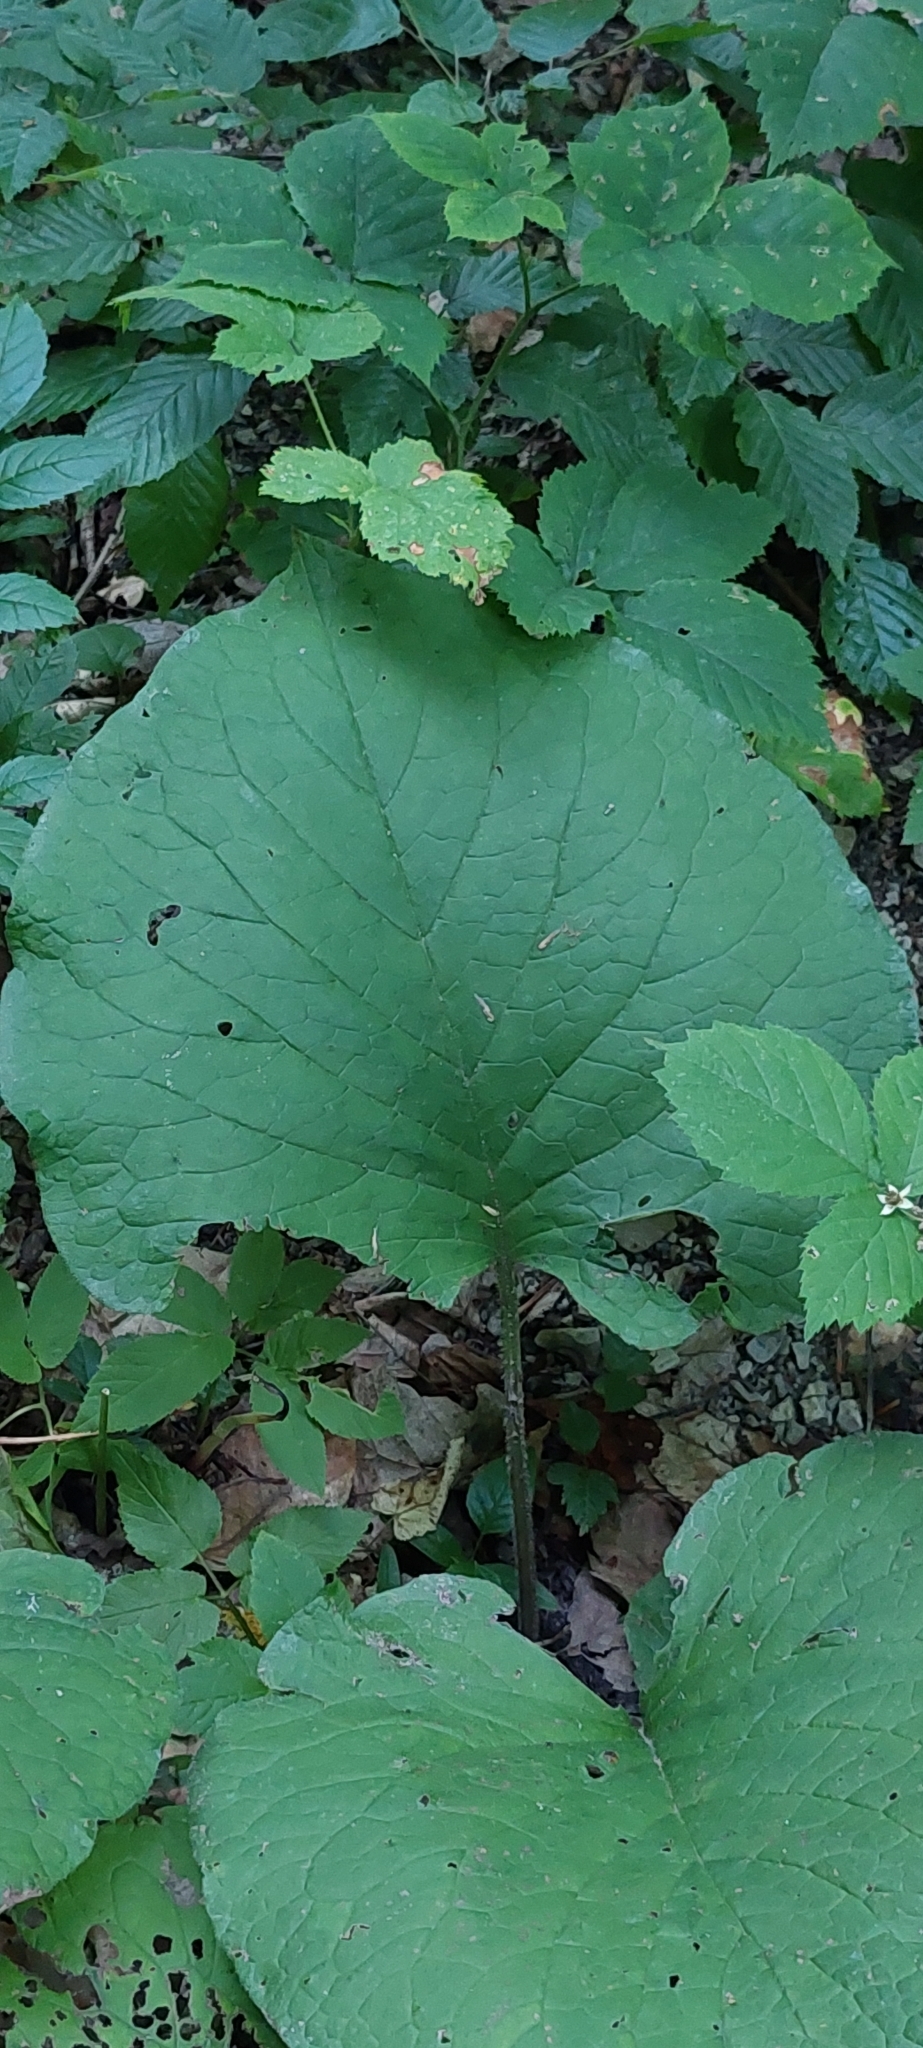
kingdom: Plantae
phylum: Tracheophyta
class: Magnoliopsida
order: Boraginales
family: Boraginaceae
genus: Trachystemon
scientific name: Trachystemon orientale
